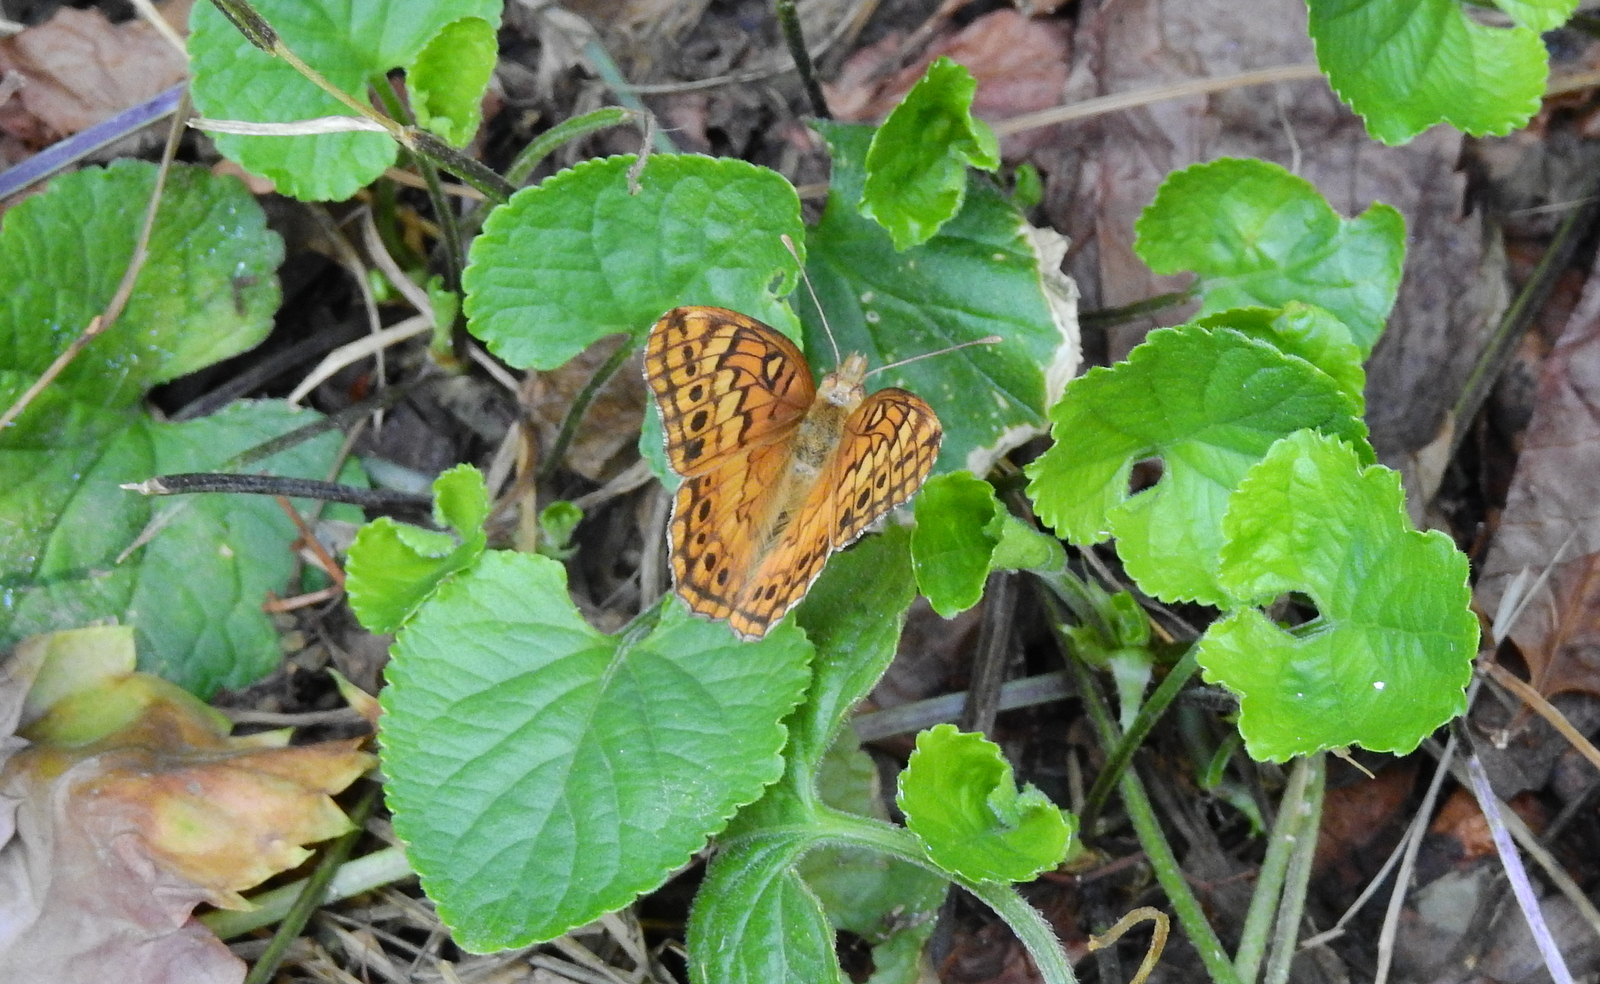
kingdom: Animalia
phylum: Arthropoda
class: Insecta
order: Lepidoptera
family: Nymphalidae
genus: Euptoieta
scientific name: Euptoieta hortensia
